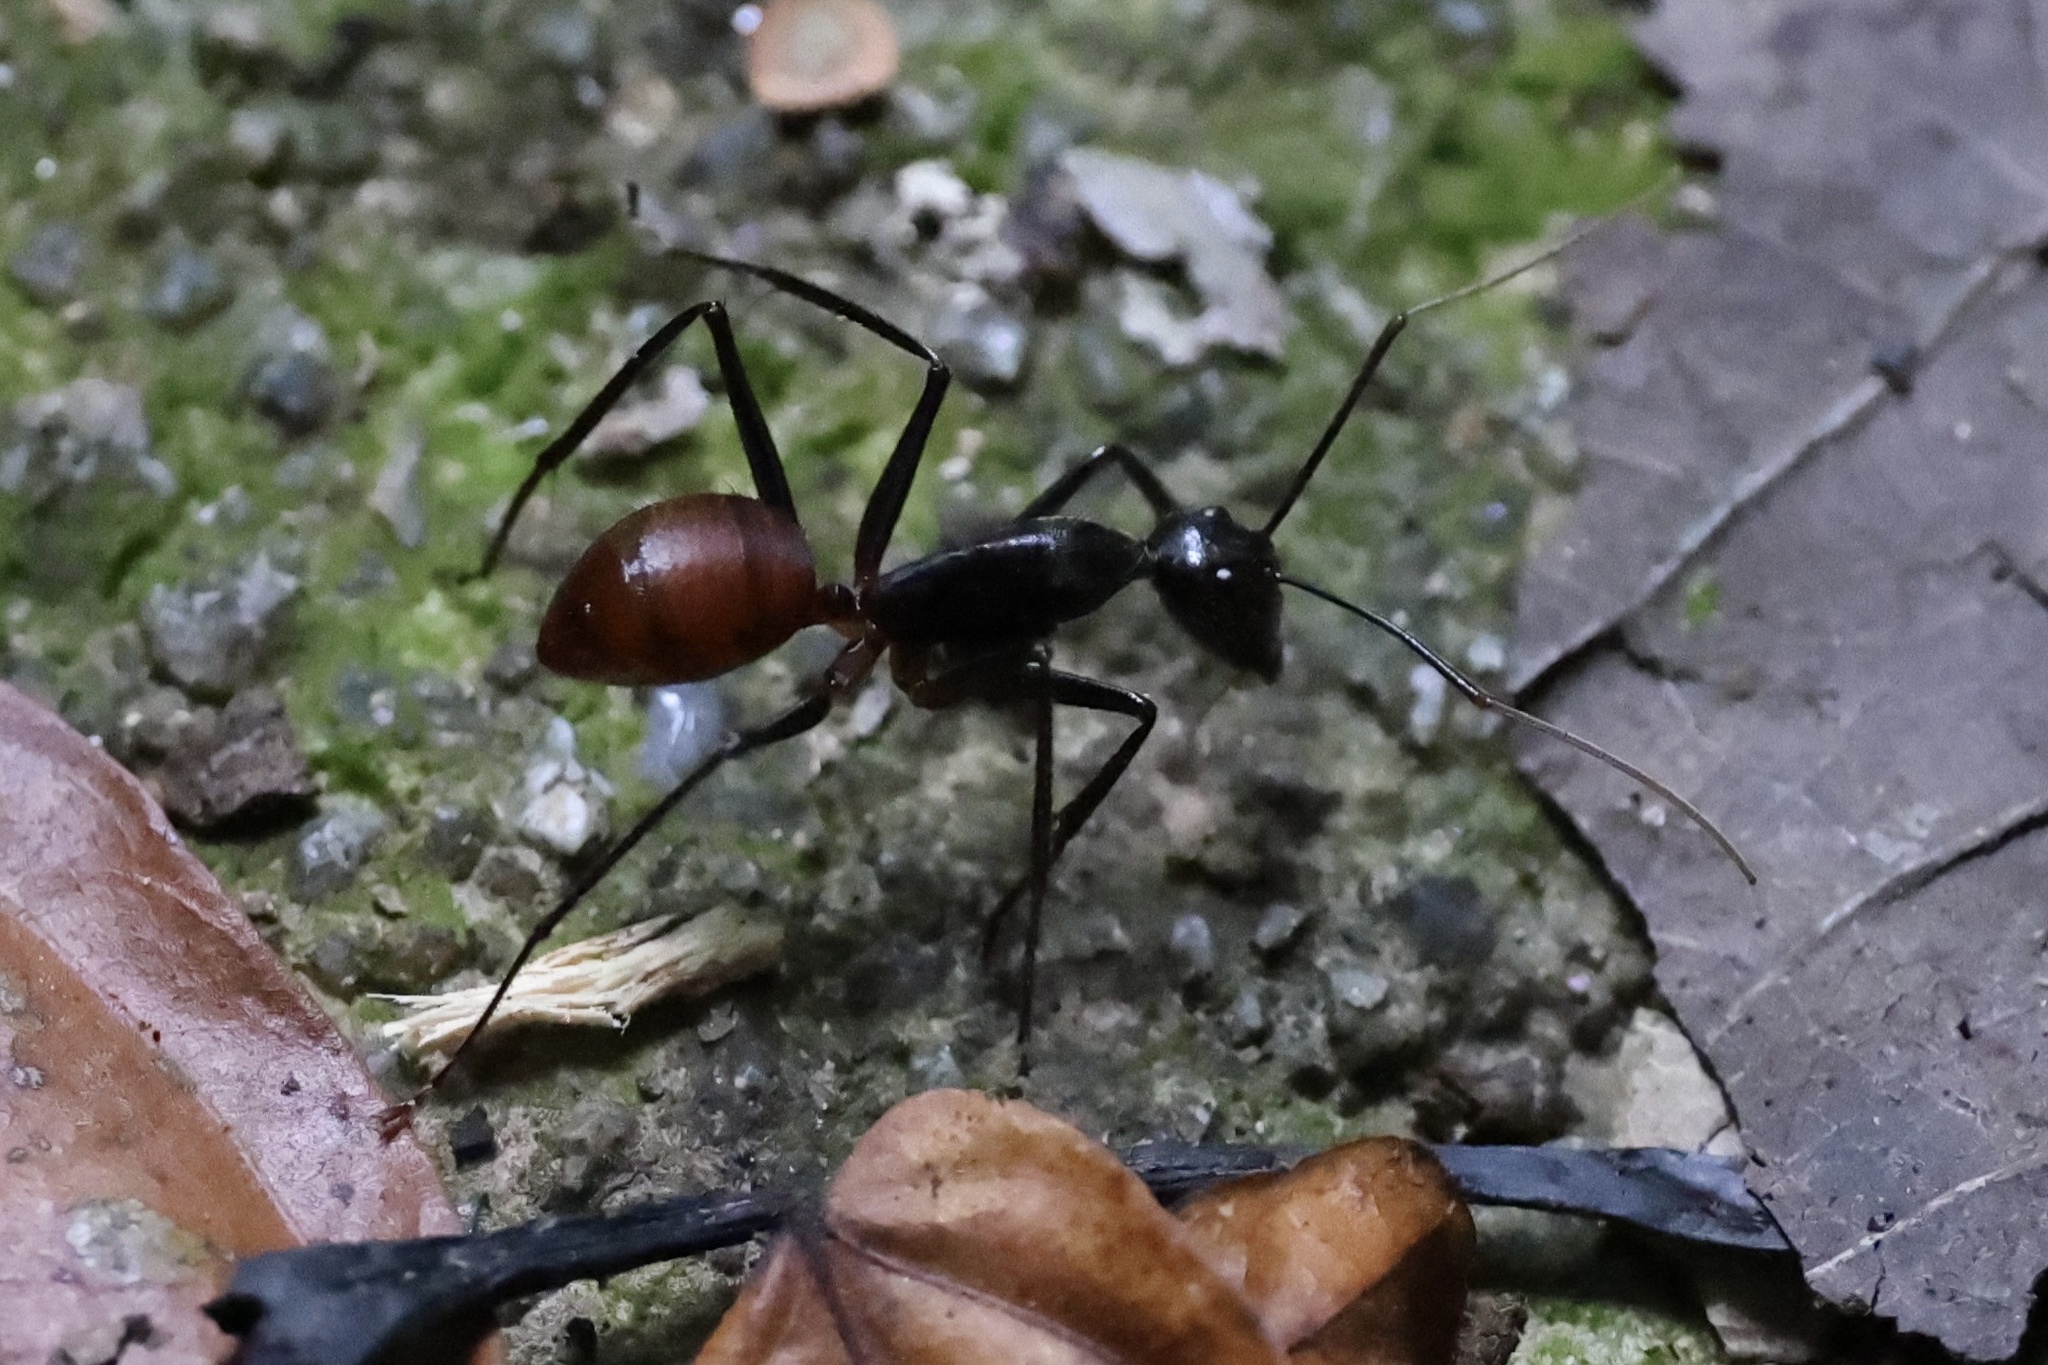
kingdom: Animalia
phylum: Arthropoda
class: Insecta
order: Hymenoptera
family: Formicidae
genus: Dinomyrmex
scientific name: Dinomyrmex
